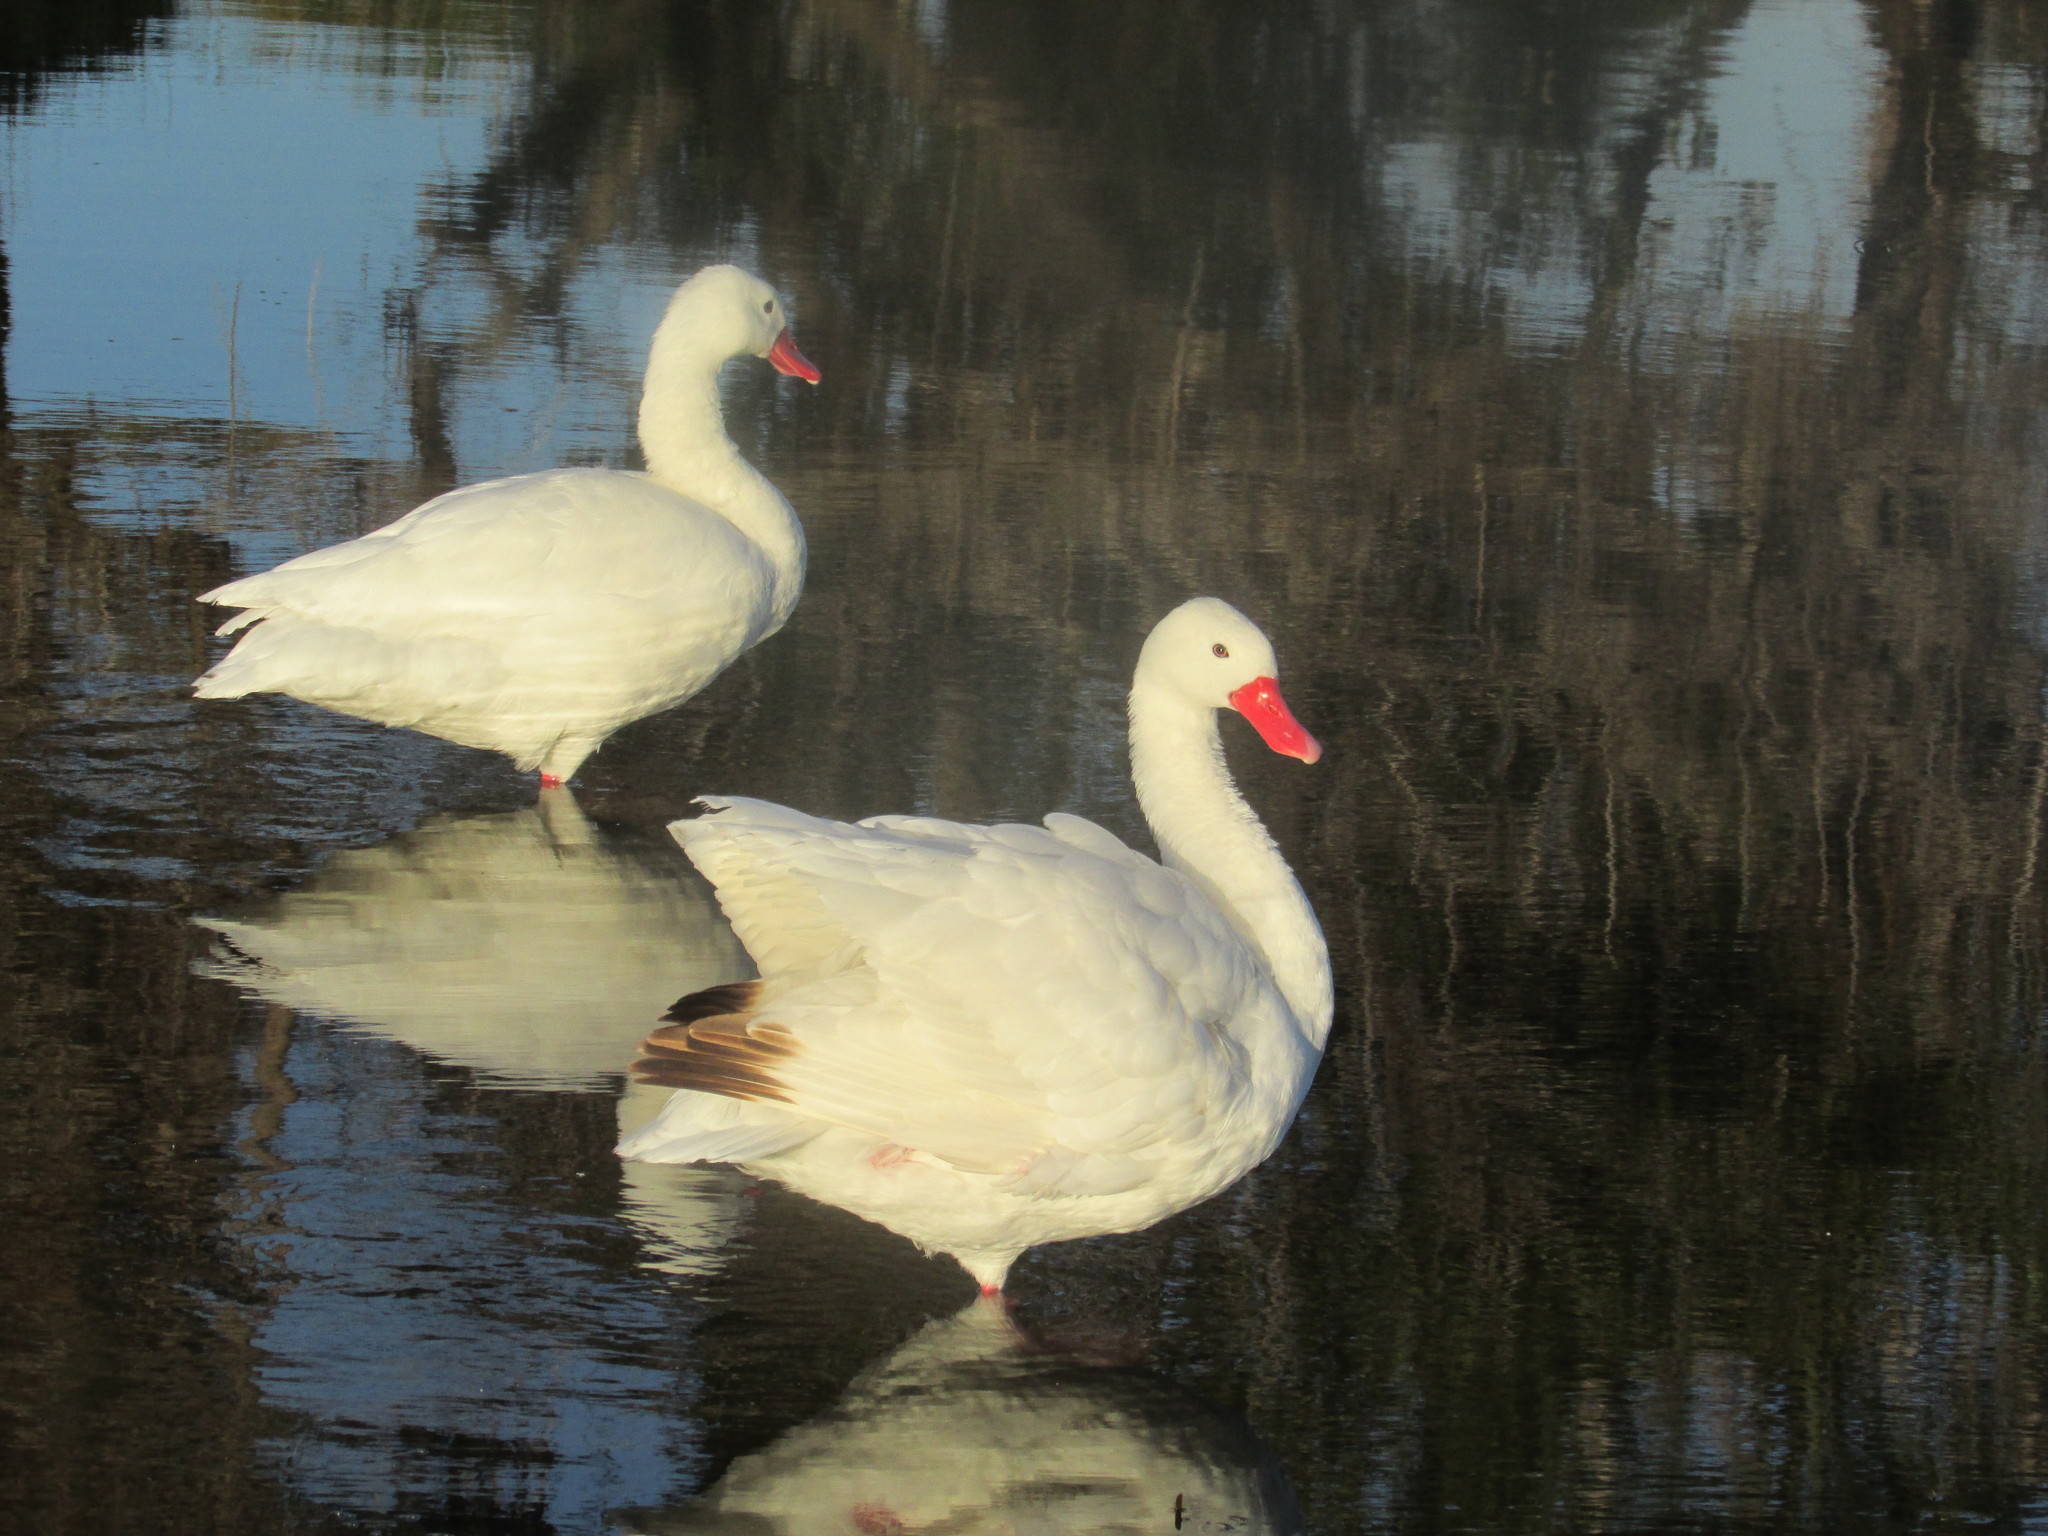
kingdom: Animalia
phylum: Chordata
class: Aves
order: Anseriformes
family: Anatidae
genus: Coscoroba
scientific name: Coscoroba coscoroba
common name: Coscoroba swan
